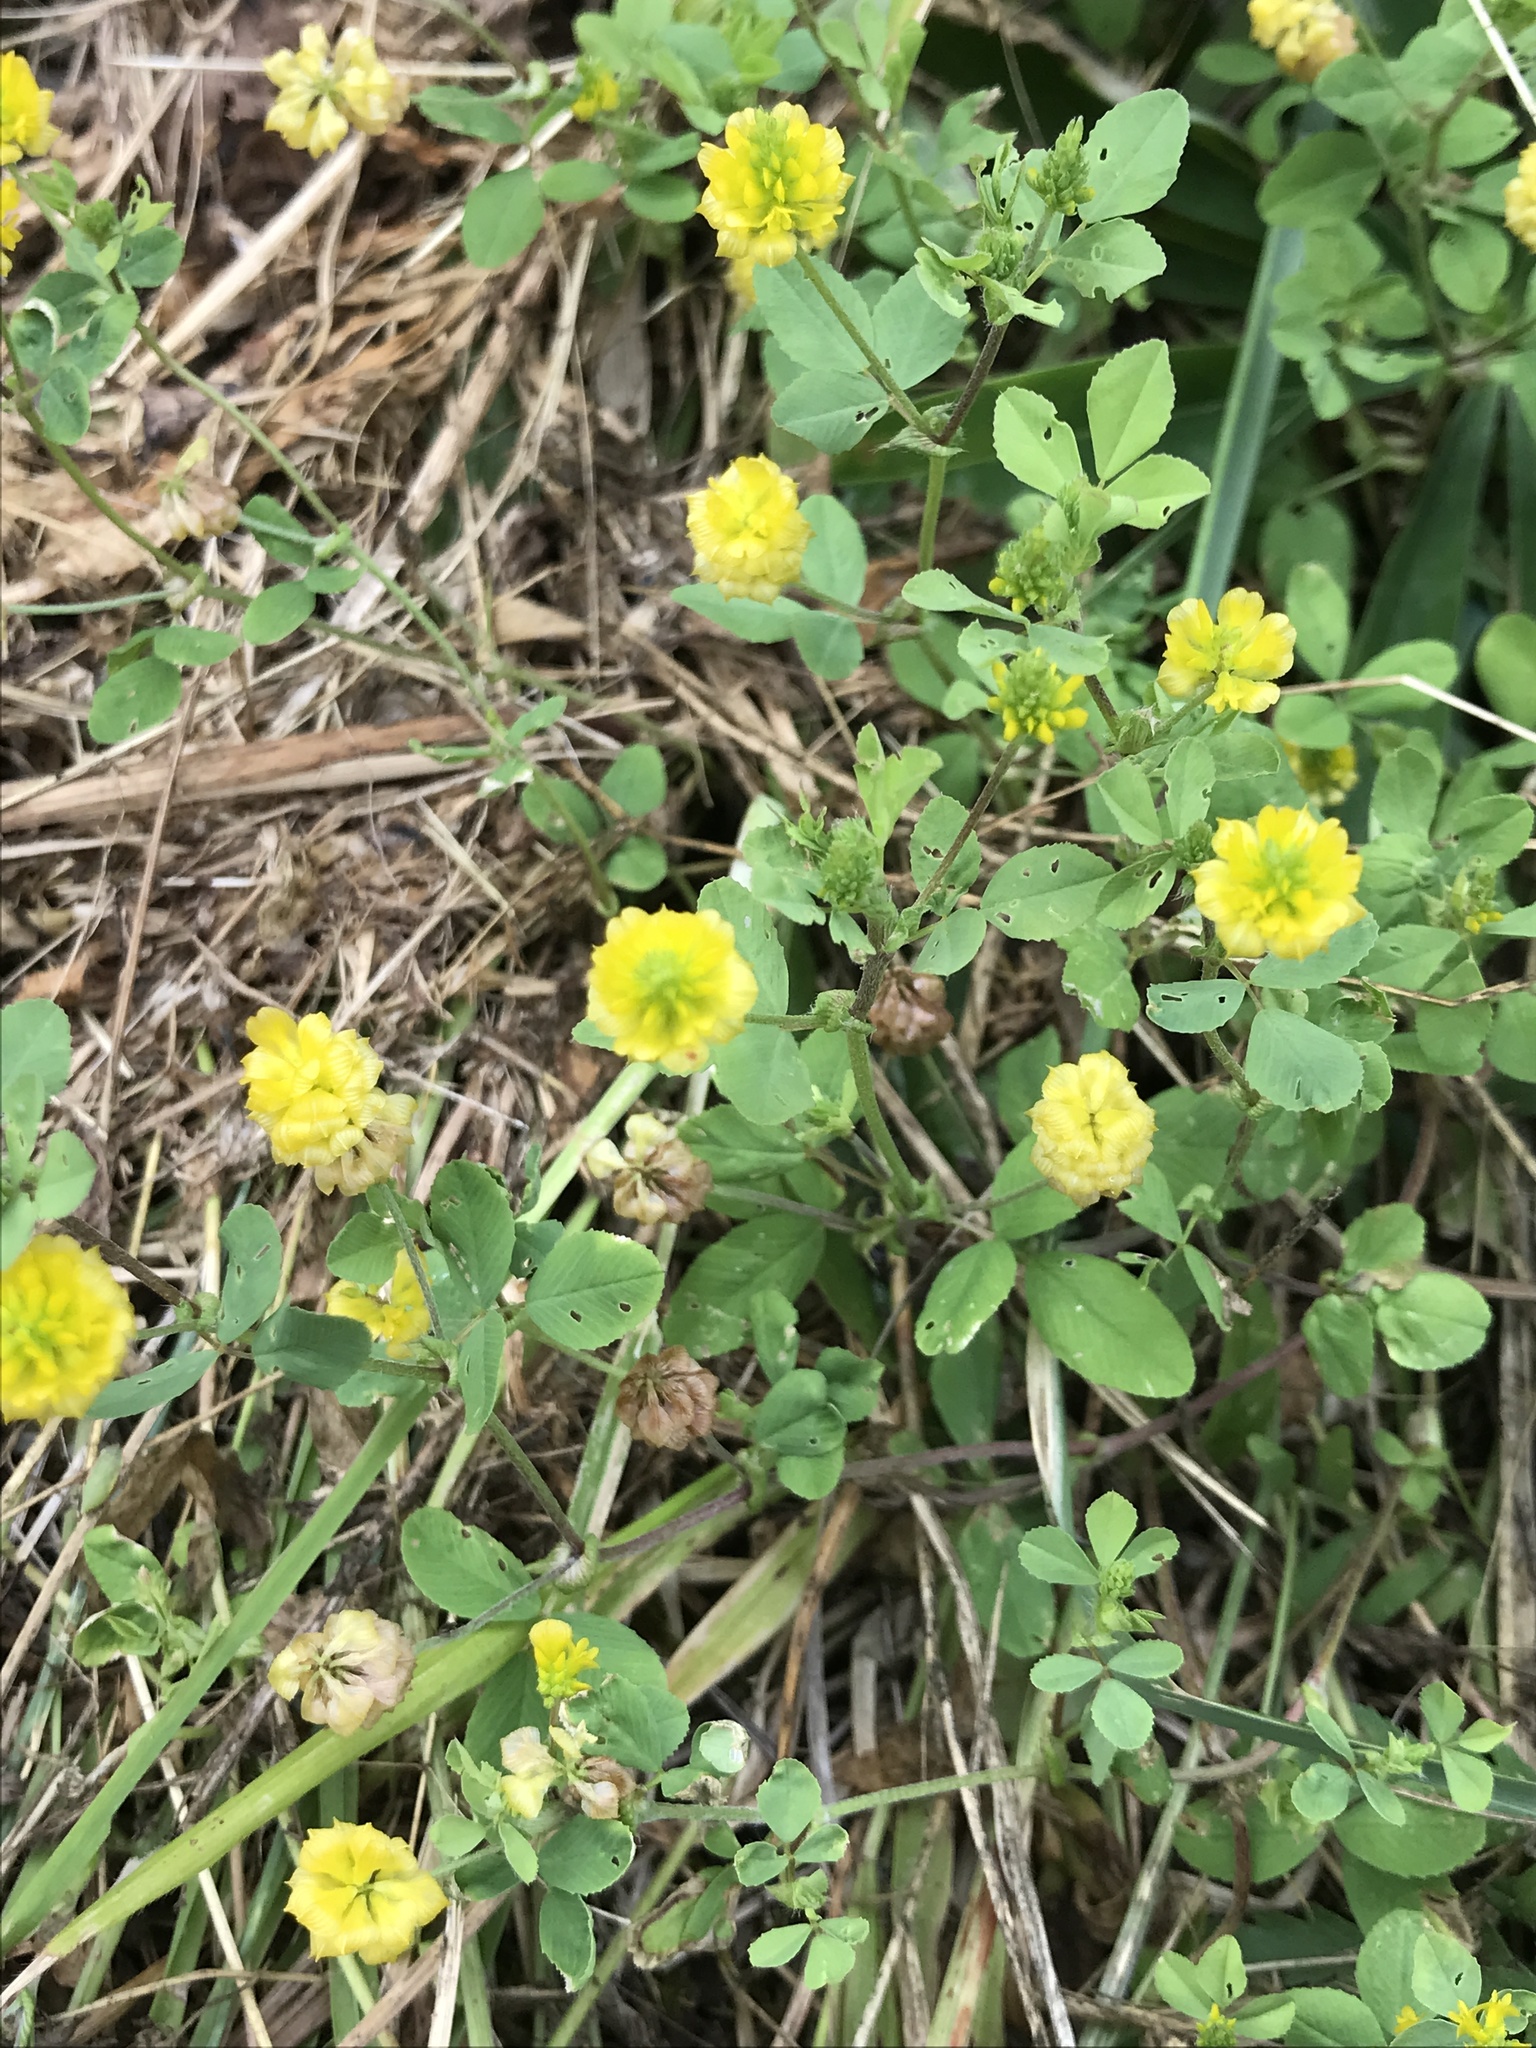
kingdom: Plantae
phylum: Tracheophyta
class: Magnoliopsida
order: Fabales
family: Fabaceae
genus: Trifolium
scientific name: Trifolium campestre
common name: Field clover
